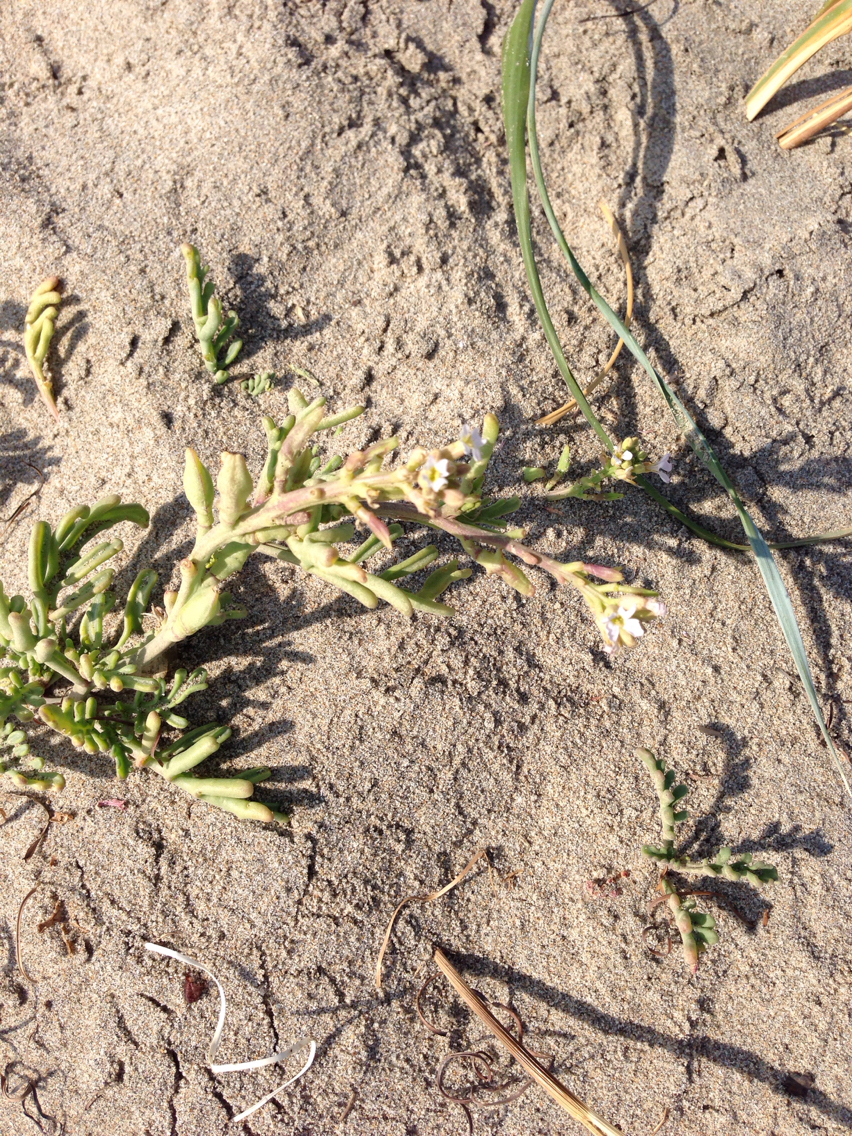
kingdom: Plantae
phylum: Tracheophyta
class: Magnoliopsida
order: Brassicales
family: Brassicaceae
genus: Cakile
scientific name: Cakile maritima
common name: Sea rocket
